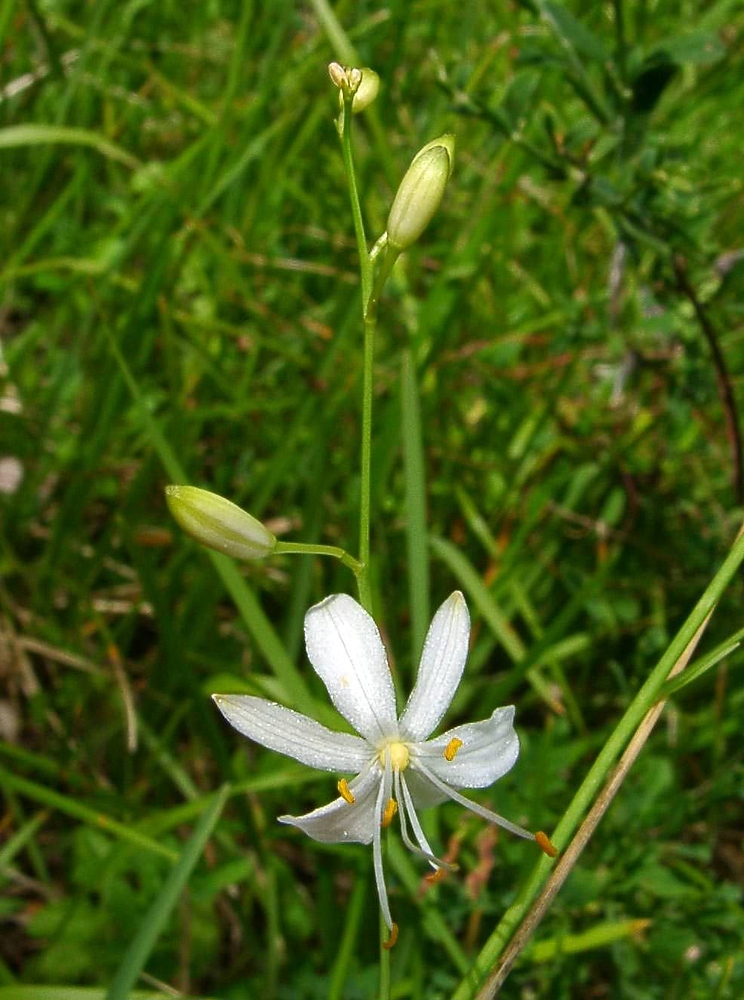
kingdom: Plantae
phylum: Tracheophyta
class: Liliopsida
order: Asparagales
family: Asparagaceae
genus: Anthericum
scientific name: Anthericum ramosum
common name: Branched st. bernard's-lily
